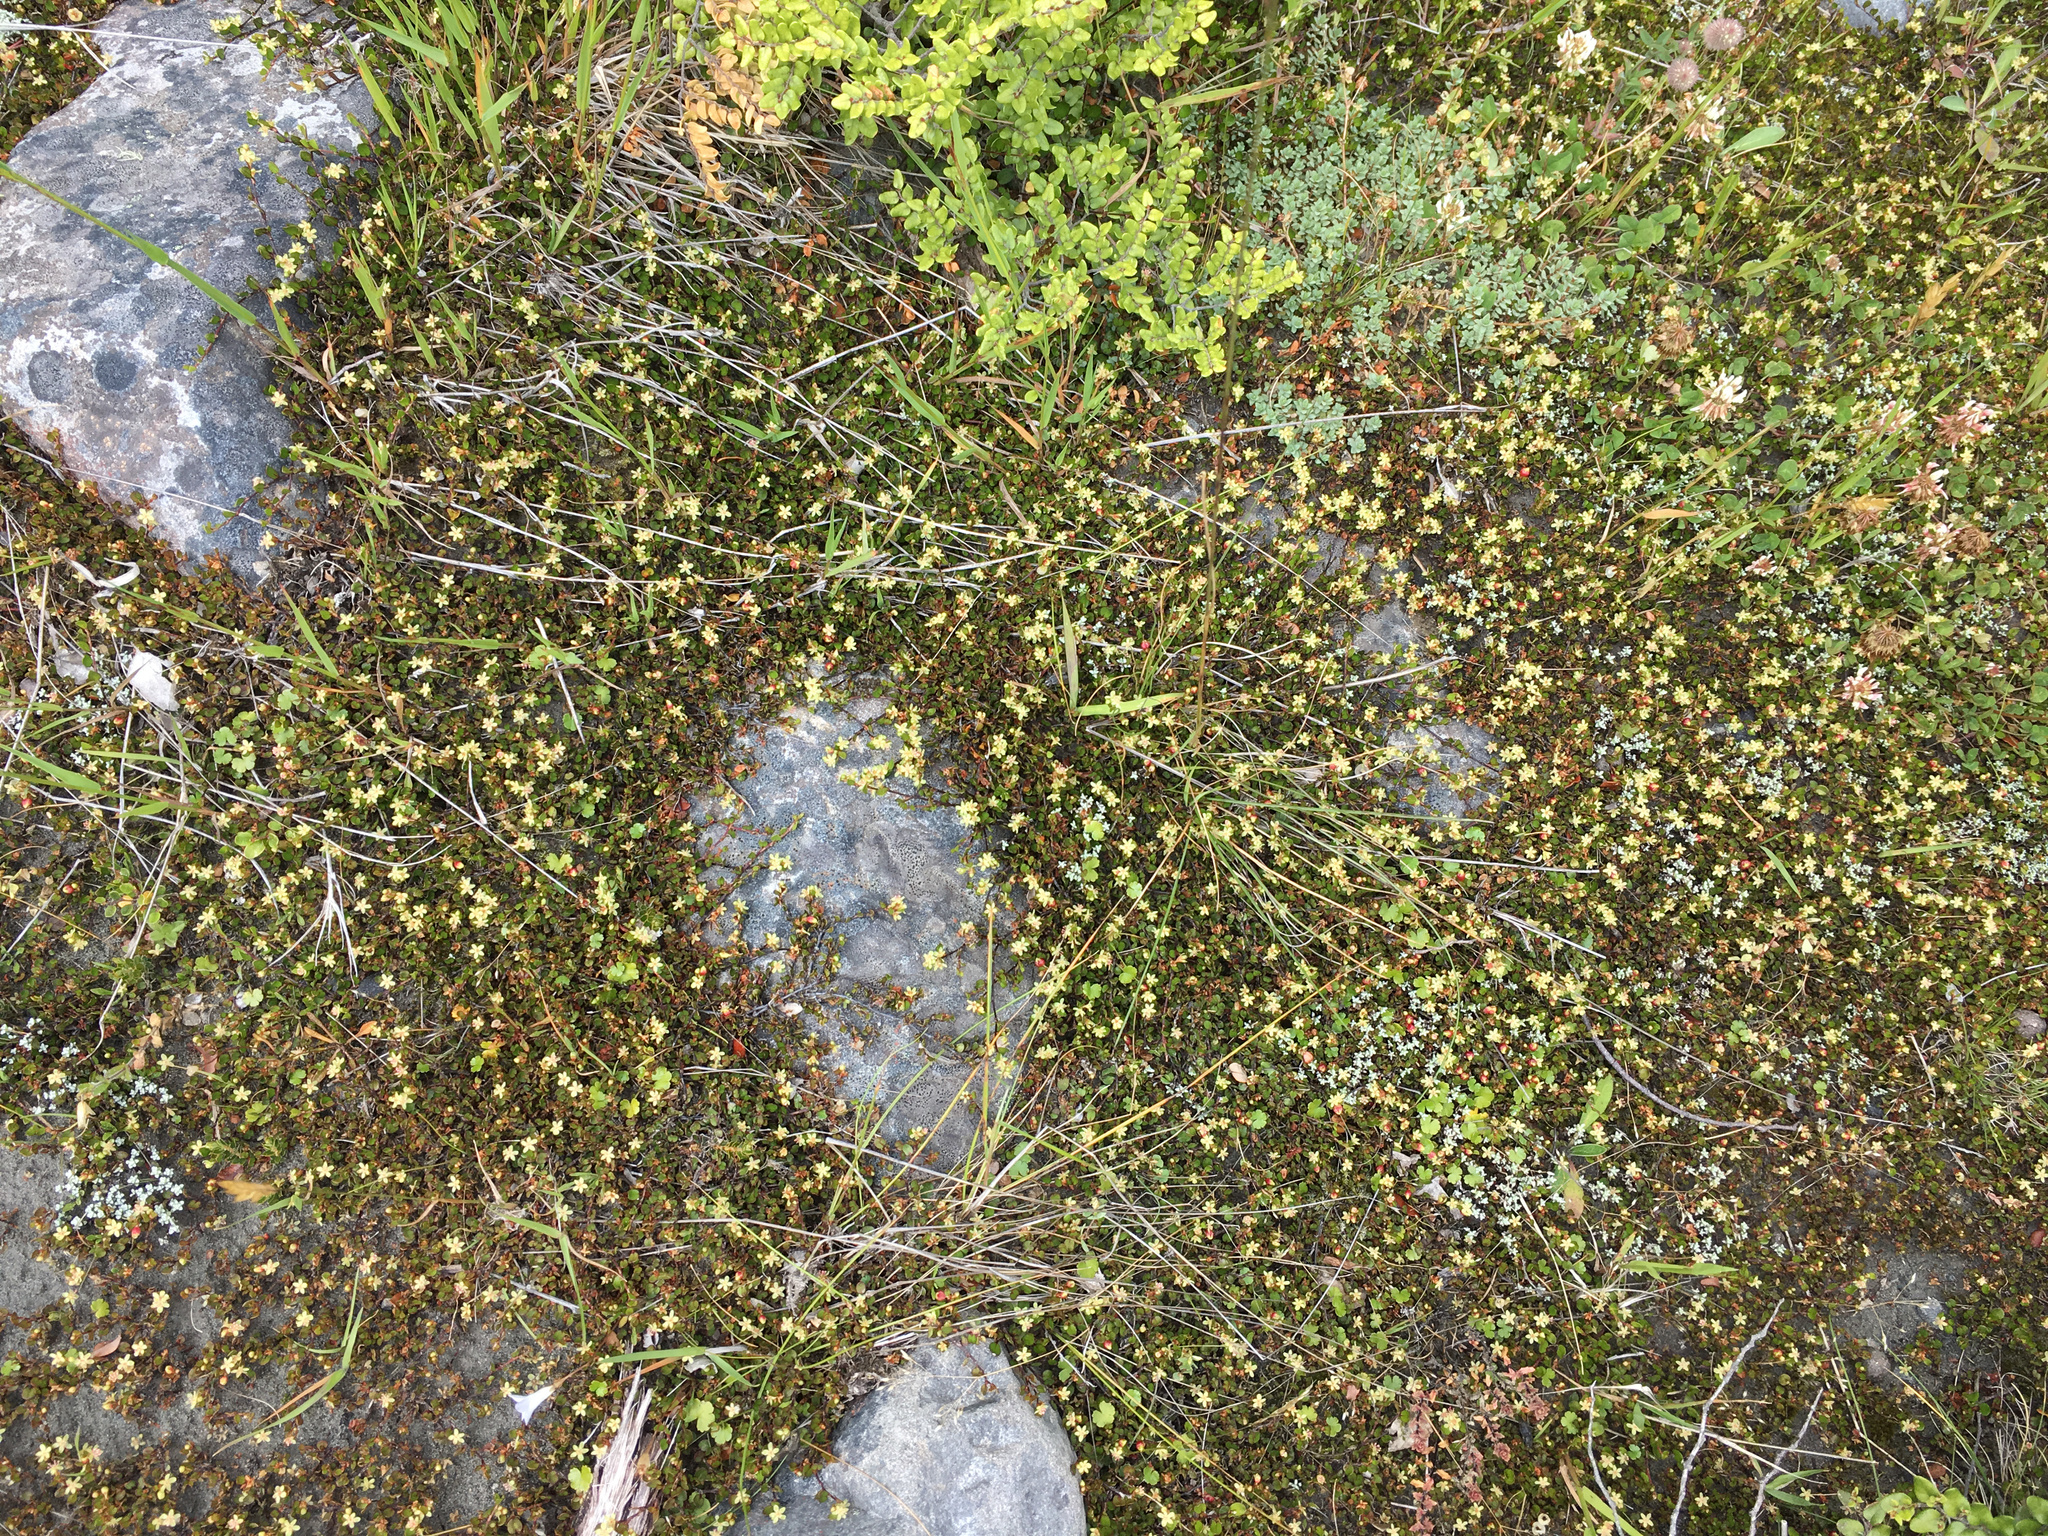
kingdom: Plantae
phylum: Tracheophyta
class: Magnoliopsida
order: Caryophyllales
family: Polygonaceae
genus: Muehlenbeckia
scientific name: Muehlenbeckia axillaris
